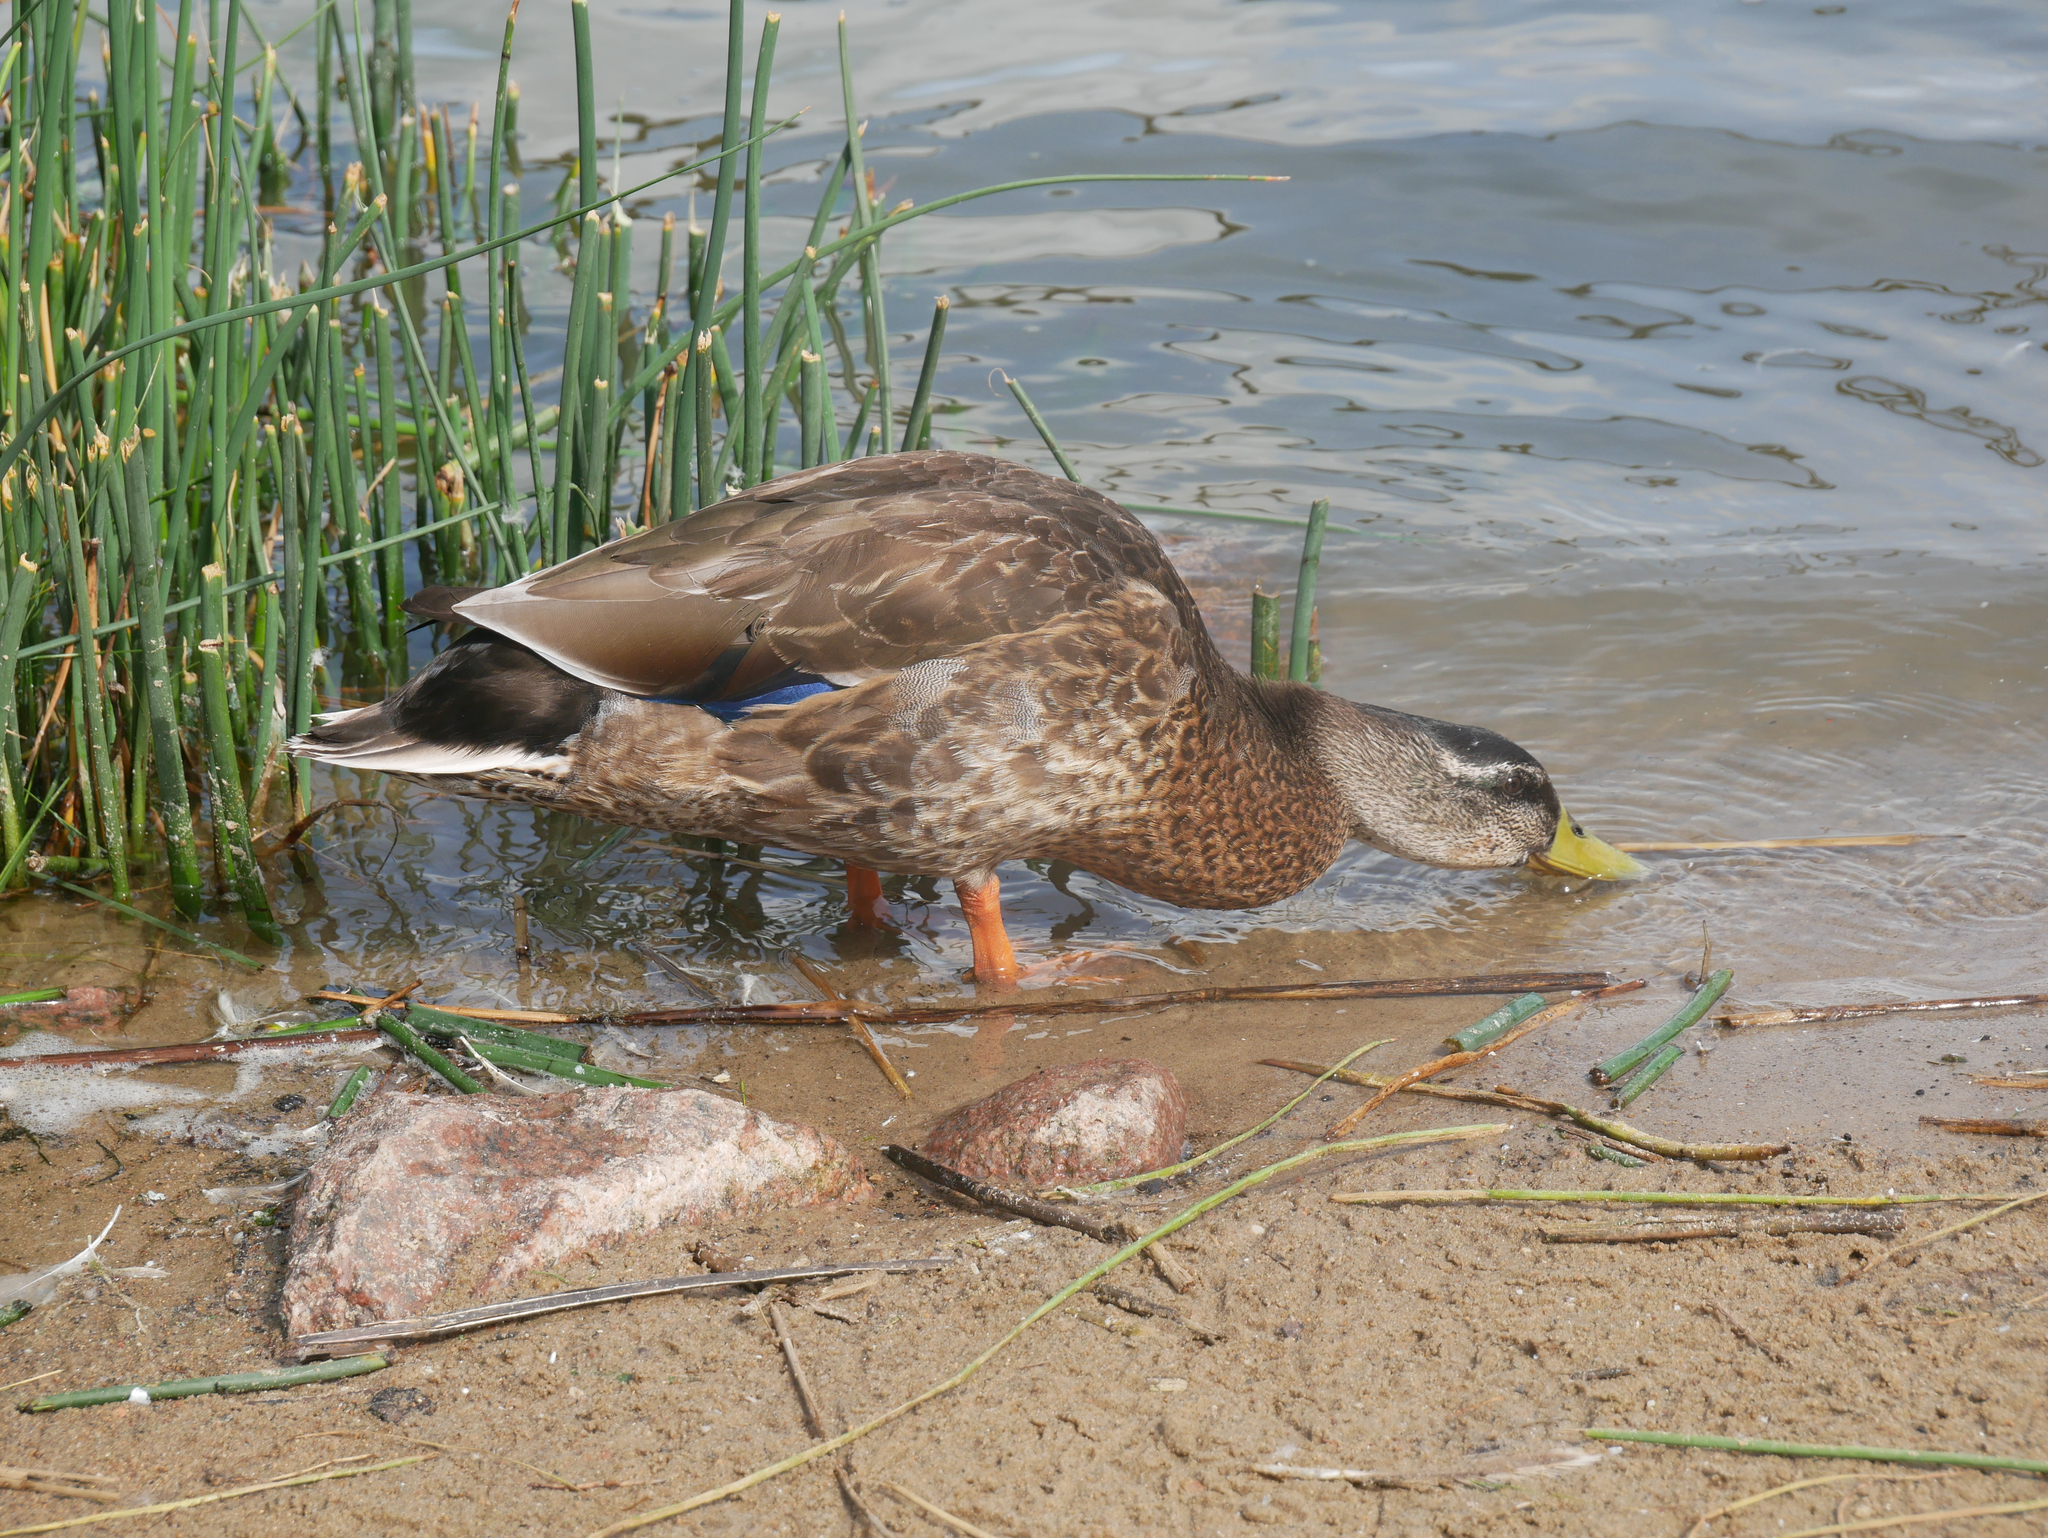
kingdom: Animalia
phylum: Chordata
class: Aves
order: Anseriformes
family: Anatidae
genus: Anas
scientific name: Anas platyrhynchos
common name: Mallard
